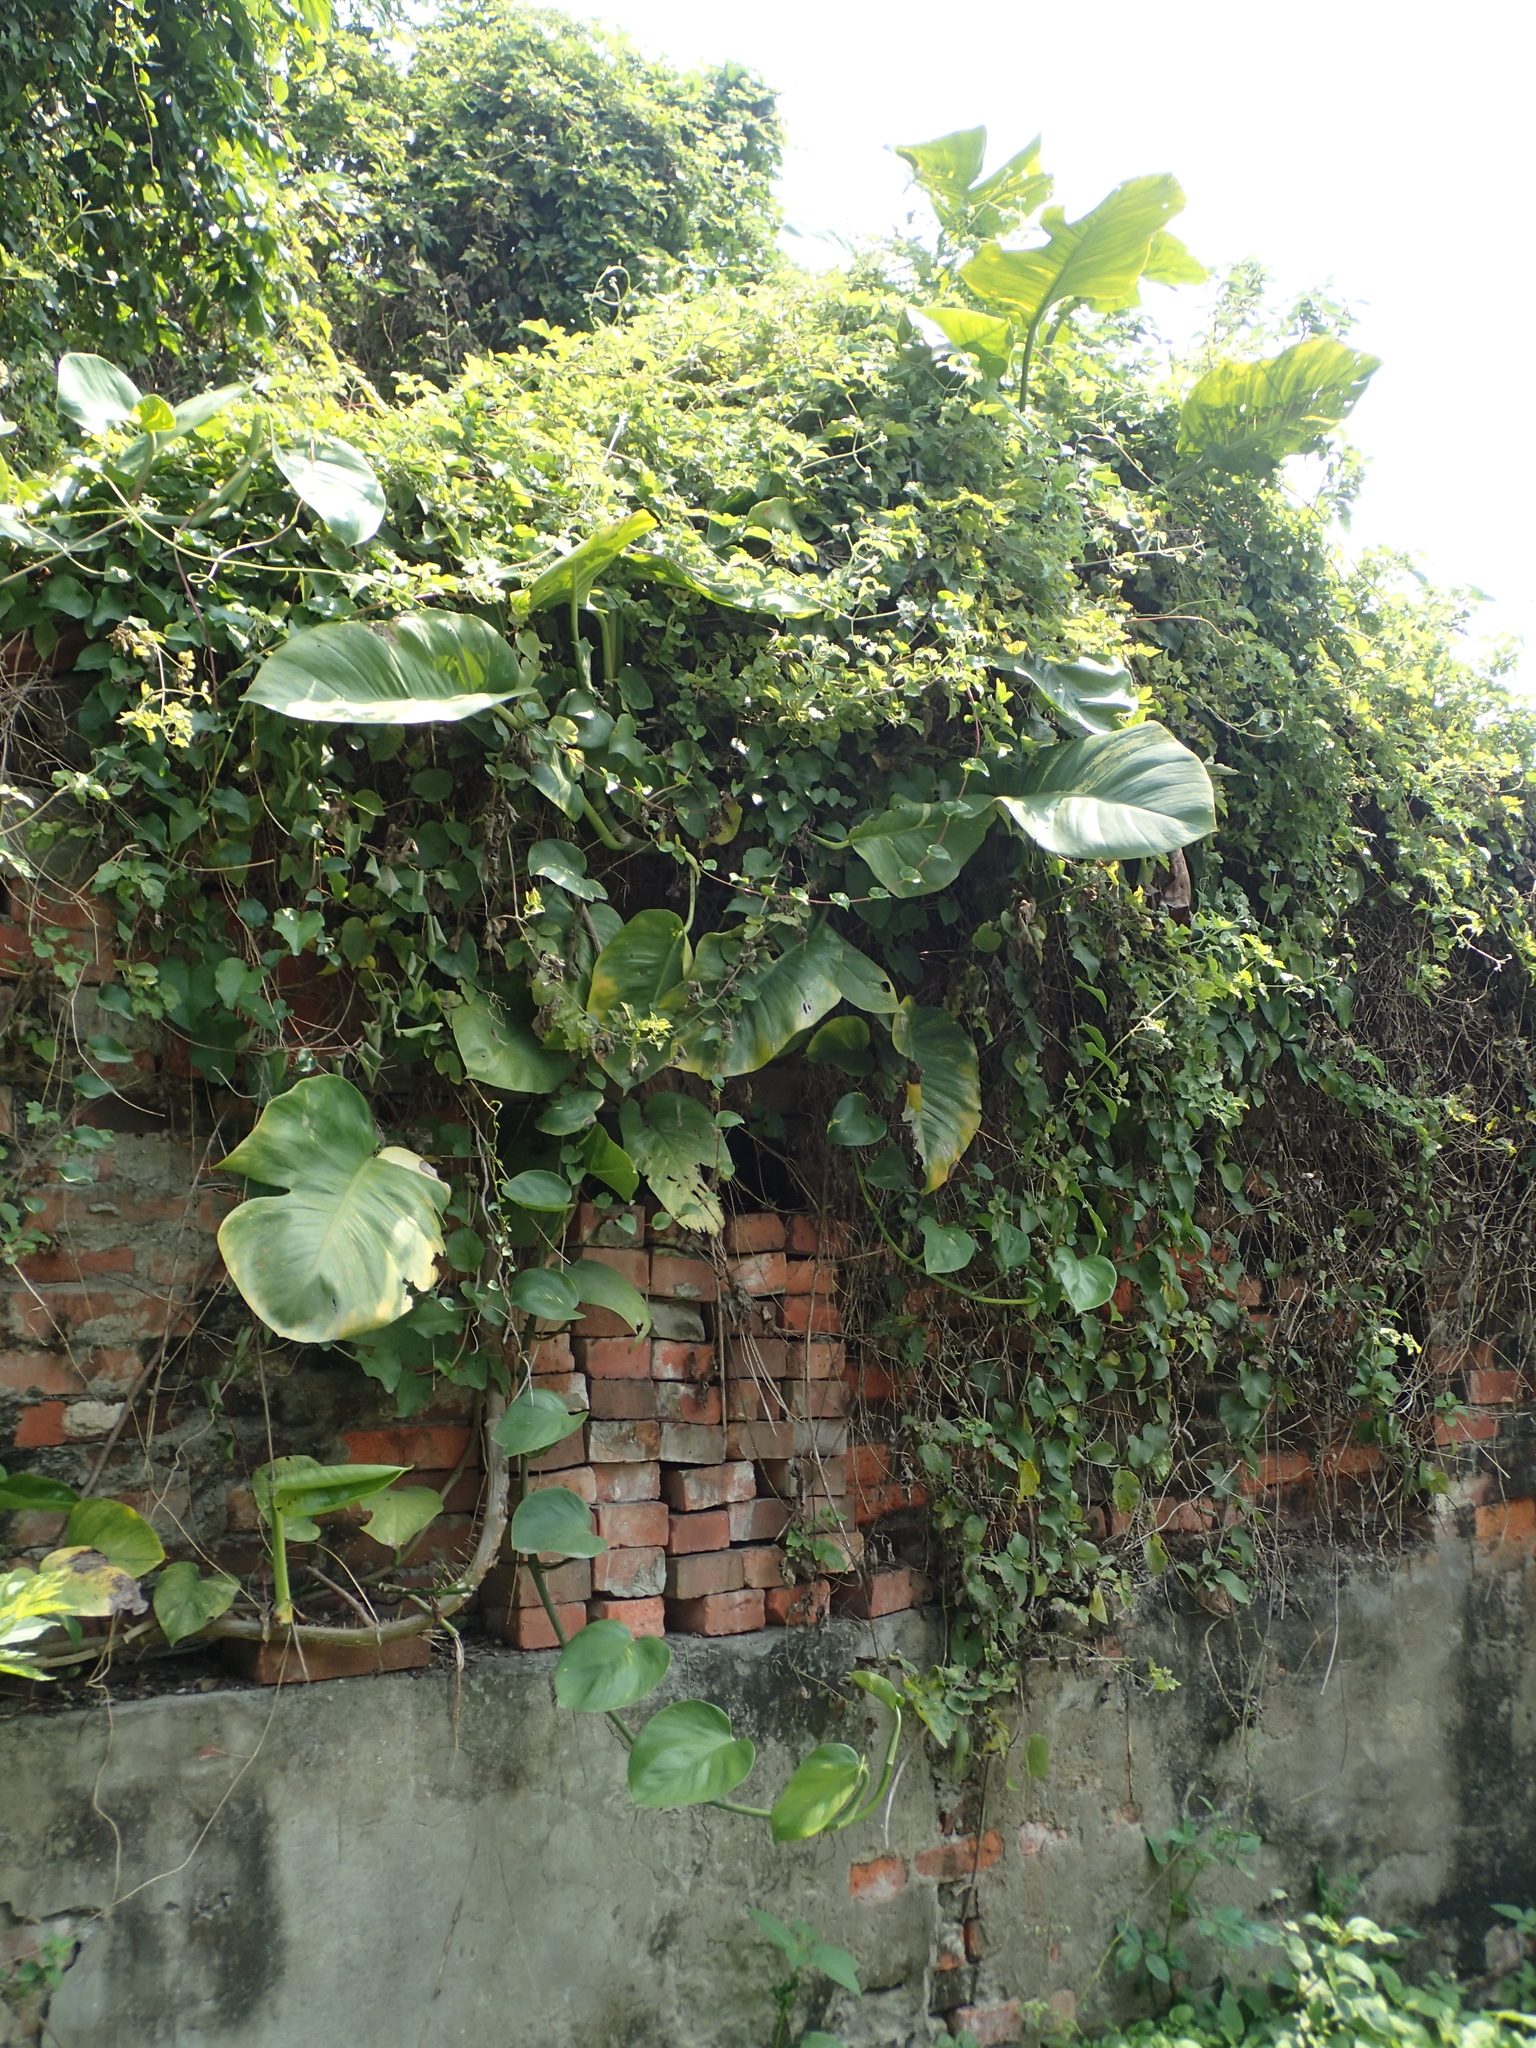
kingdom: Plantae
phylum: Tracheophyta
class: Liliopsida
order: Alismatales
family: Araceae
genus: Epipremnum
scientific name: Epipremnum aureum
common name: Golden hunter's-robe
